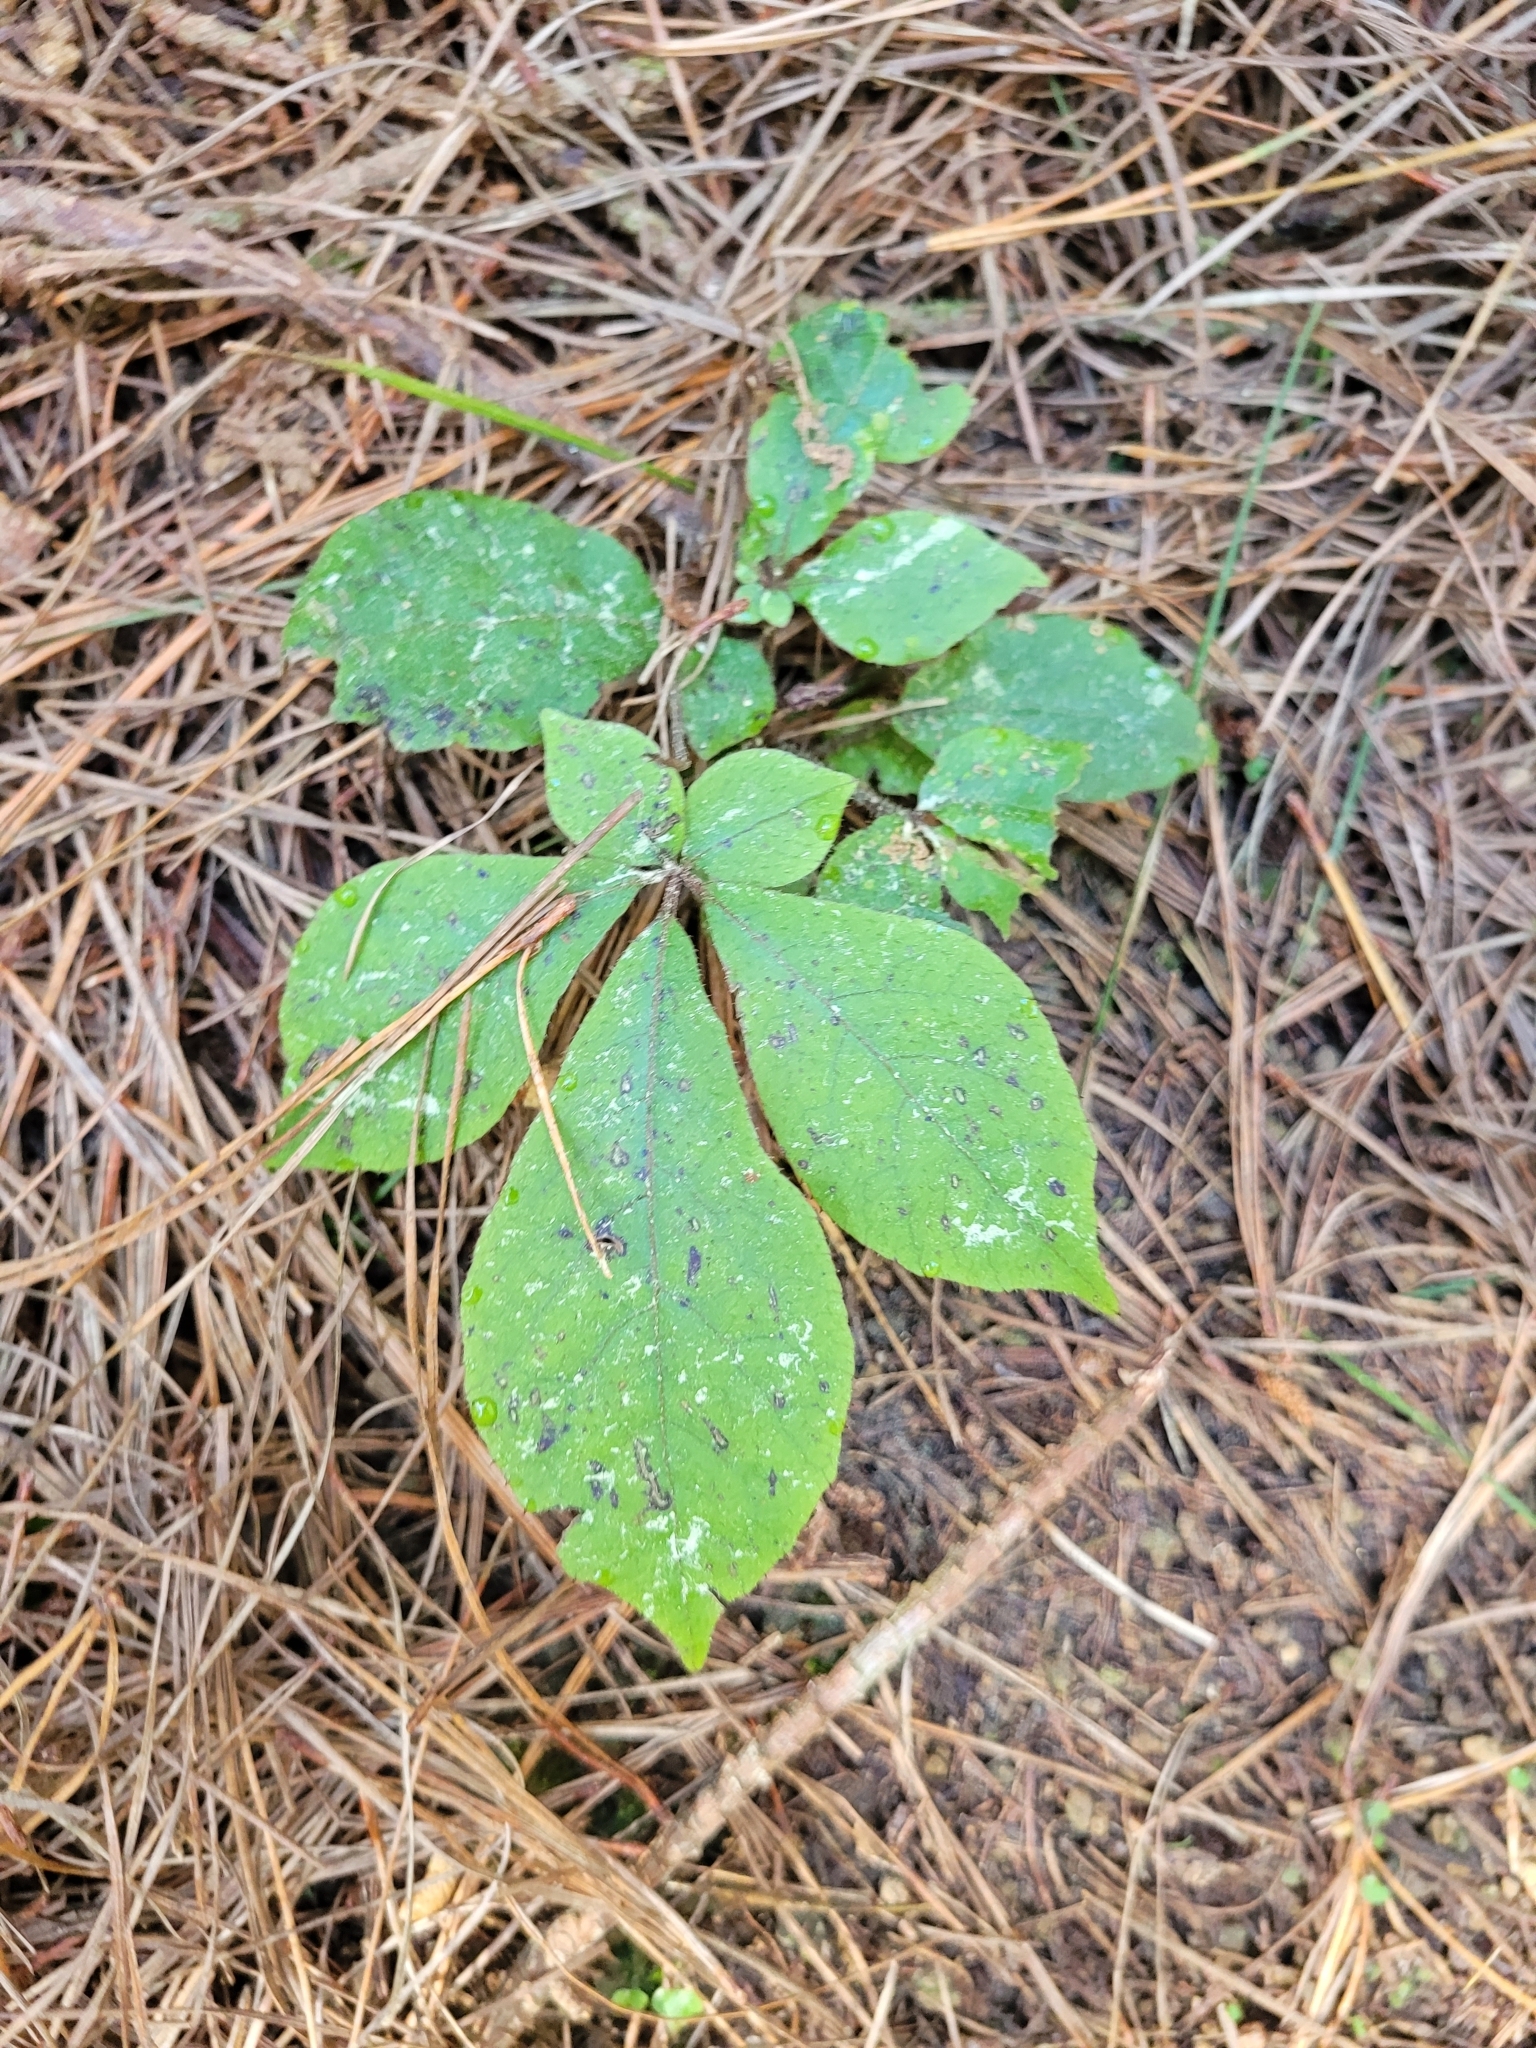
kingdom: Plantae
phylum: Tracheophyta
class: Magnoliopsida
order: Apiales
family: Araliaceae
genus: Schefflera
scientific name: Schefflera digitata
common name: Pate
